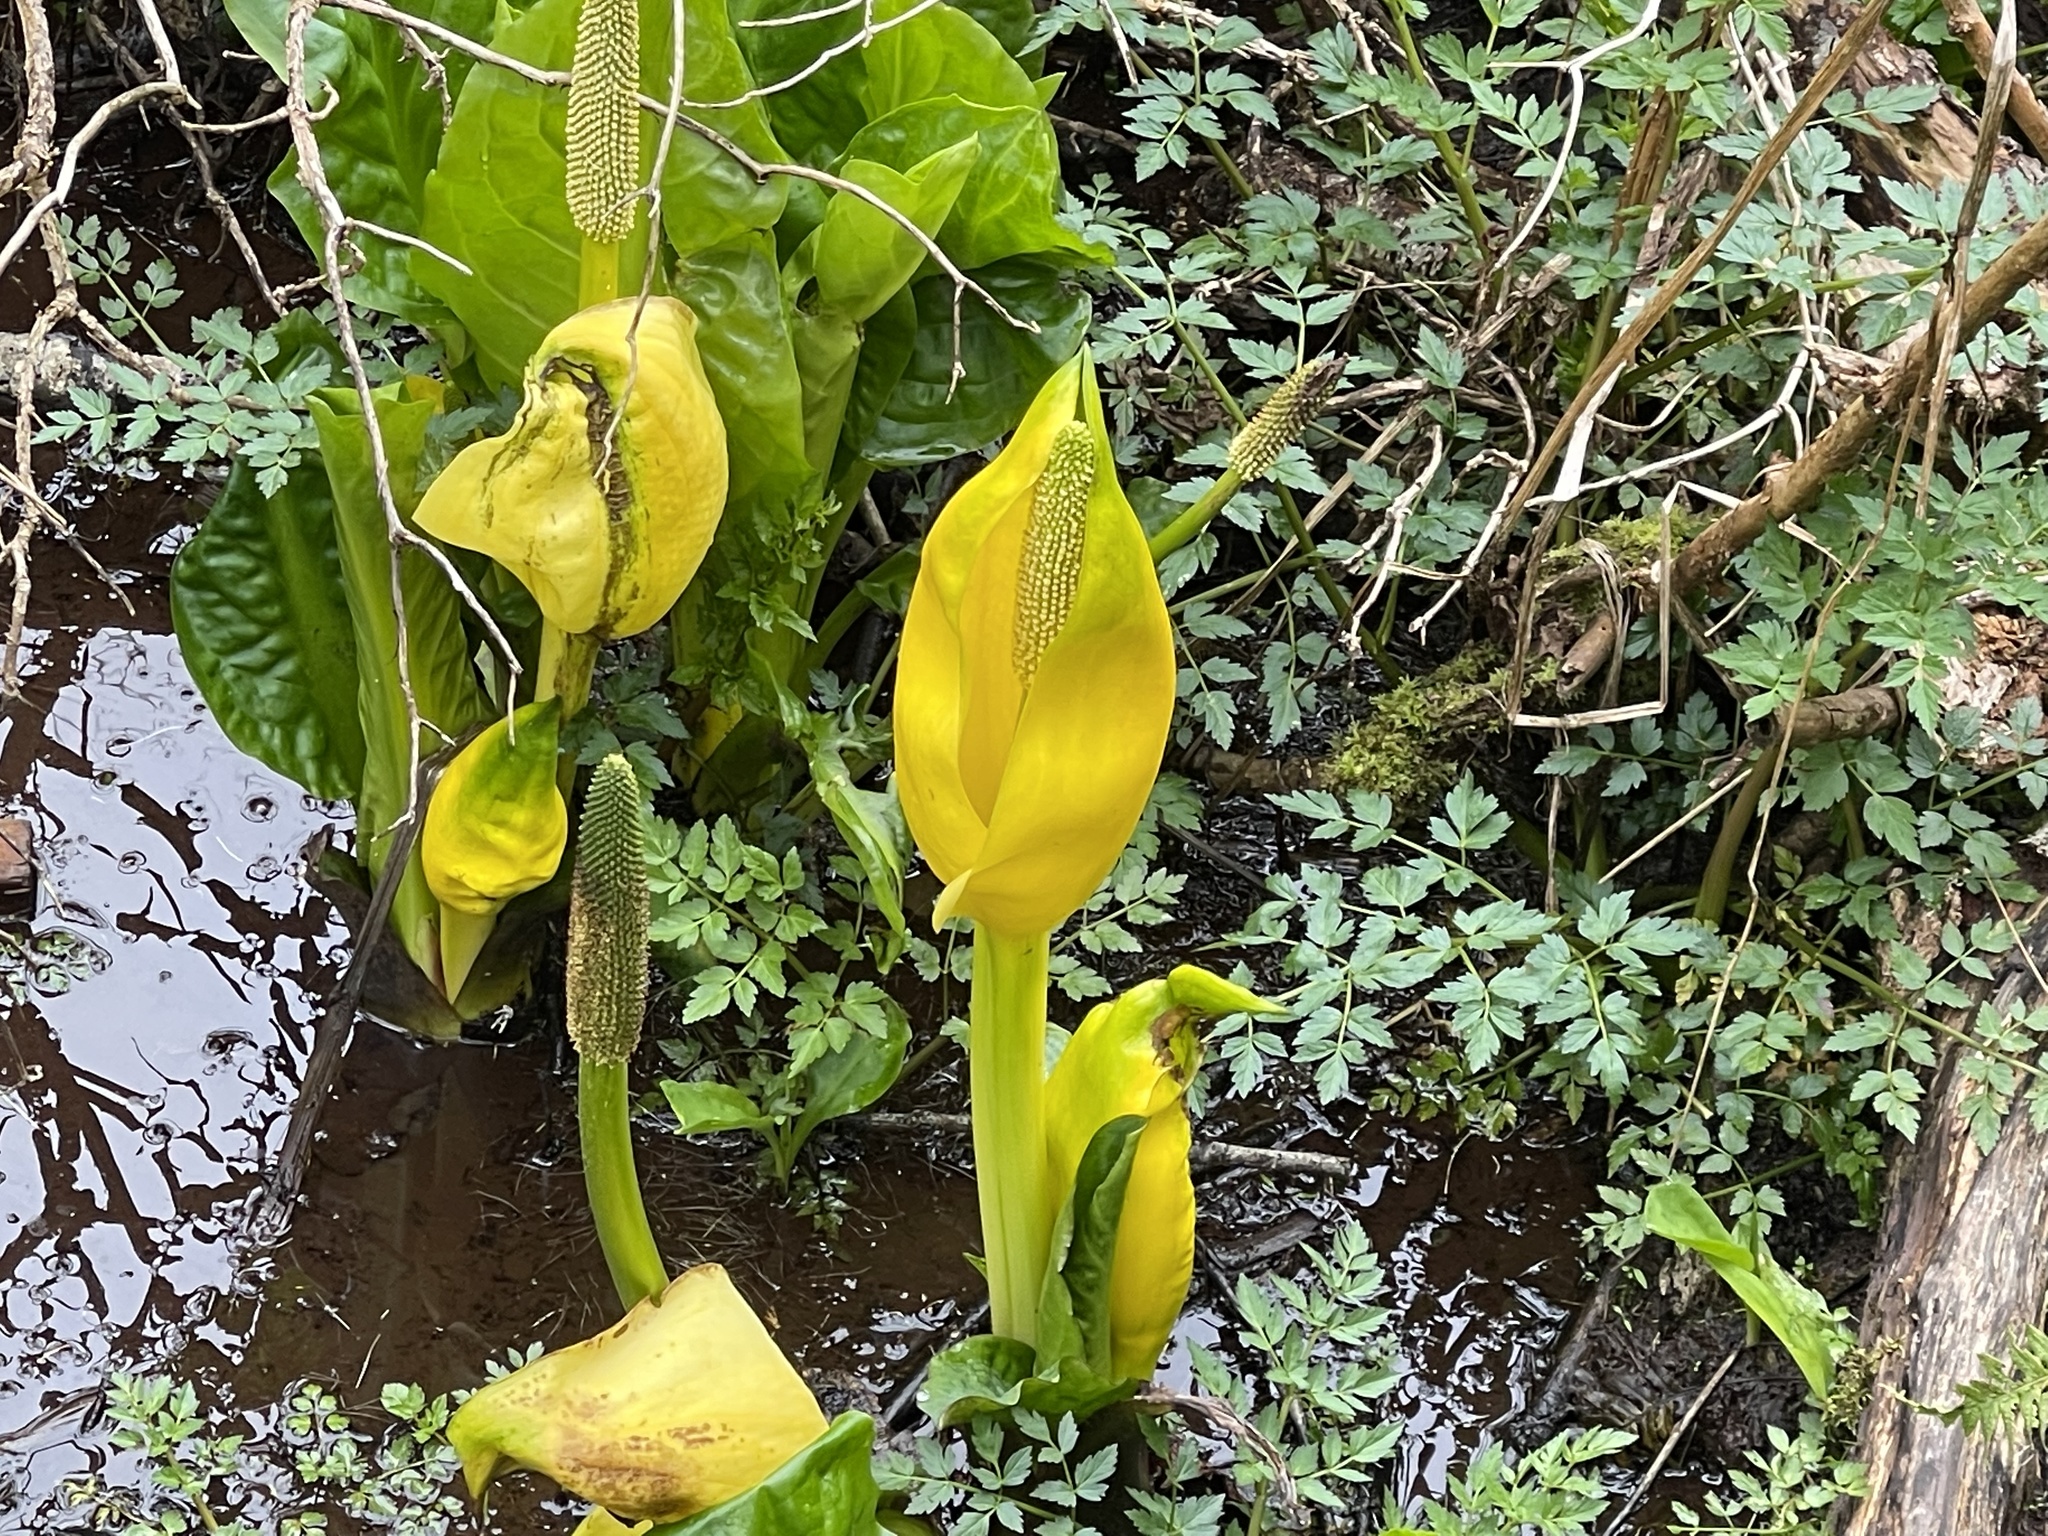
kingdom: Plantae
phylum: Tracheophyta
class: Liliopsida
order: Alismatales
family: Araceae
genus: Lysichiton
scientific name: Lysichiton americanus
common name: American skunk cabbage
